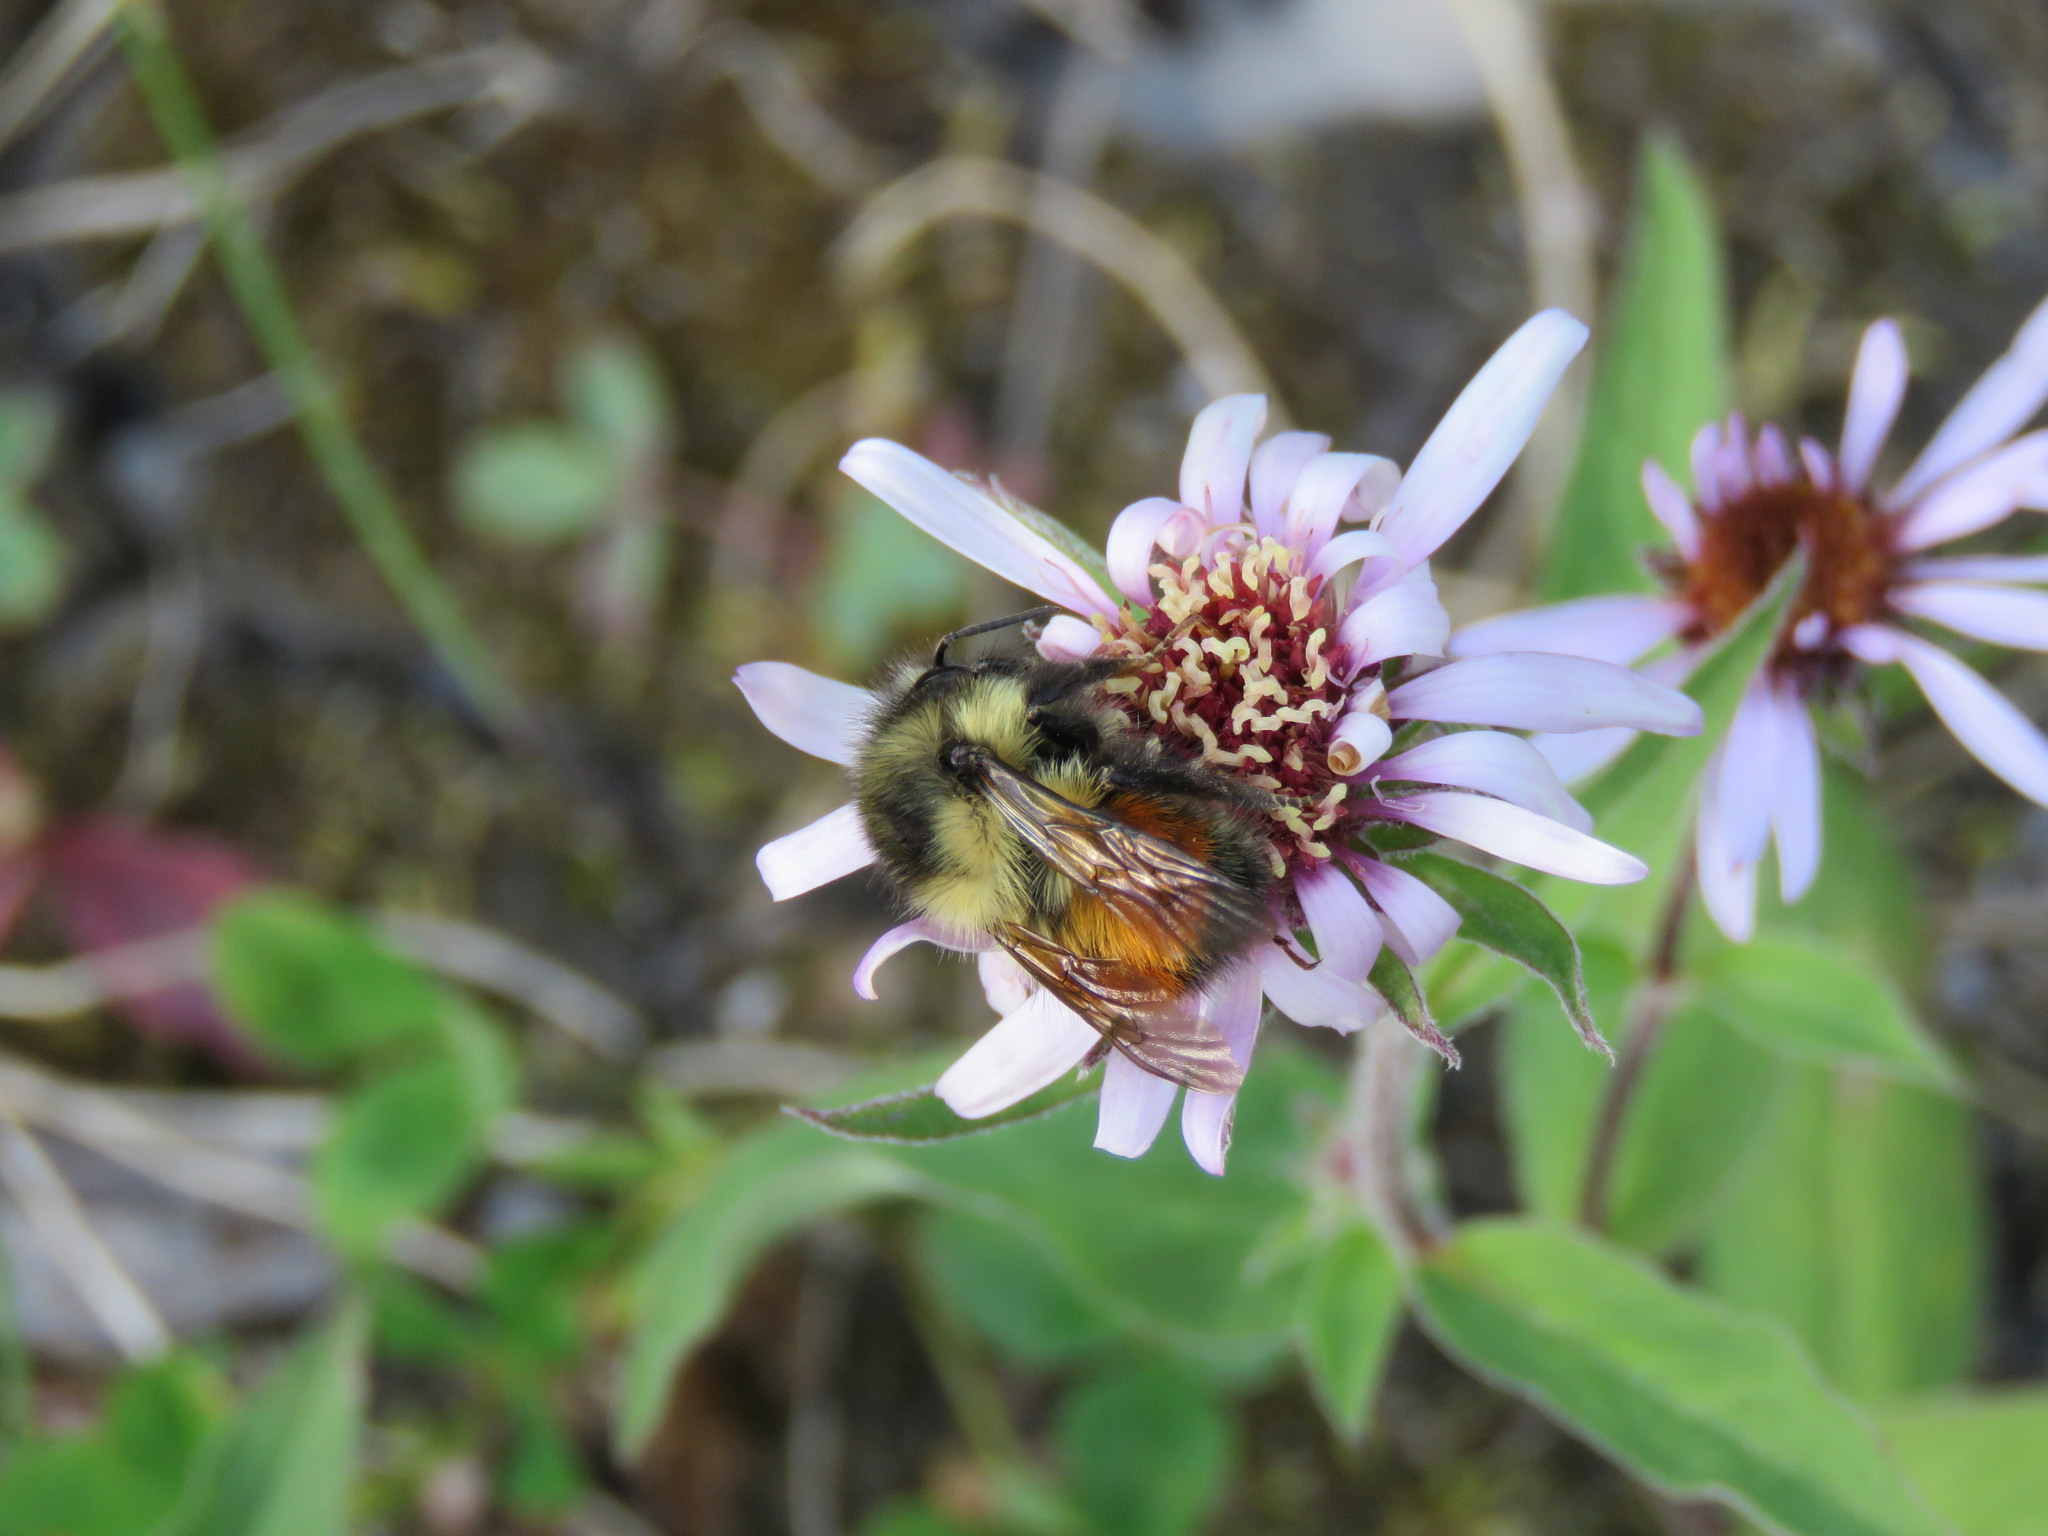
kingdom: Animalia
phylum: Arthropoda
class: Insecta
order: Hymenoptera
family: Apidae
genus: Bombus
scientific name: Bombus melanopygus
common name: Black tail bumble bee
